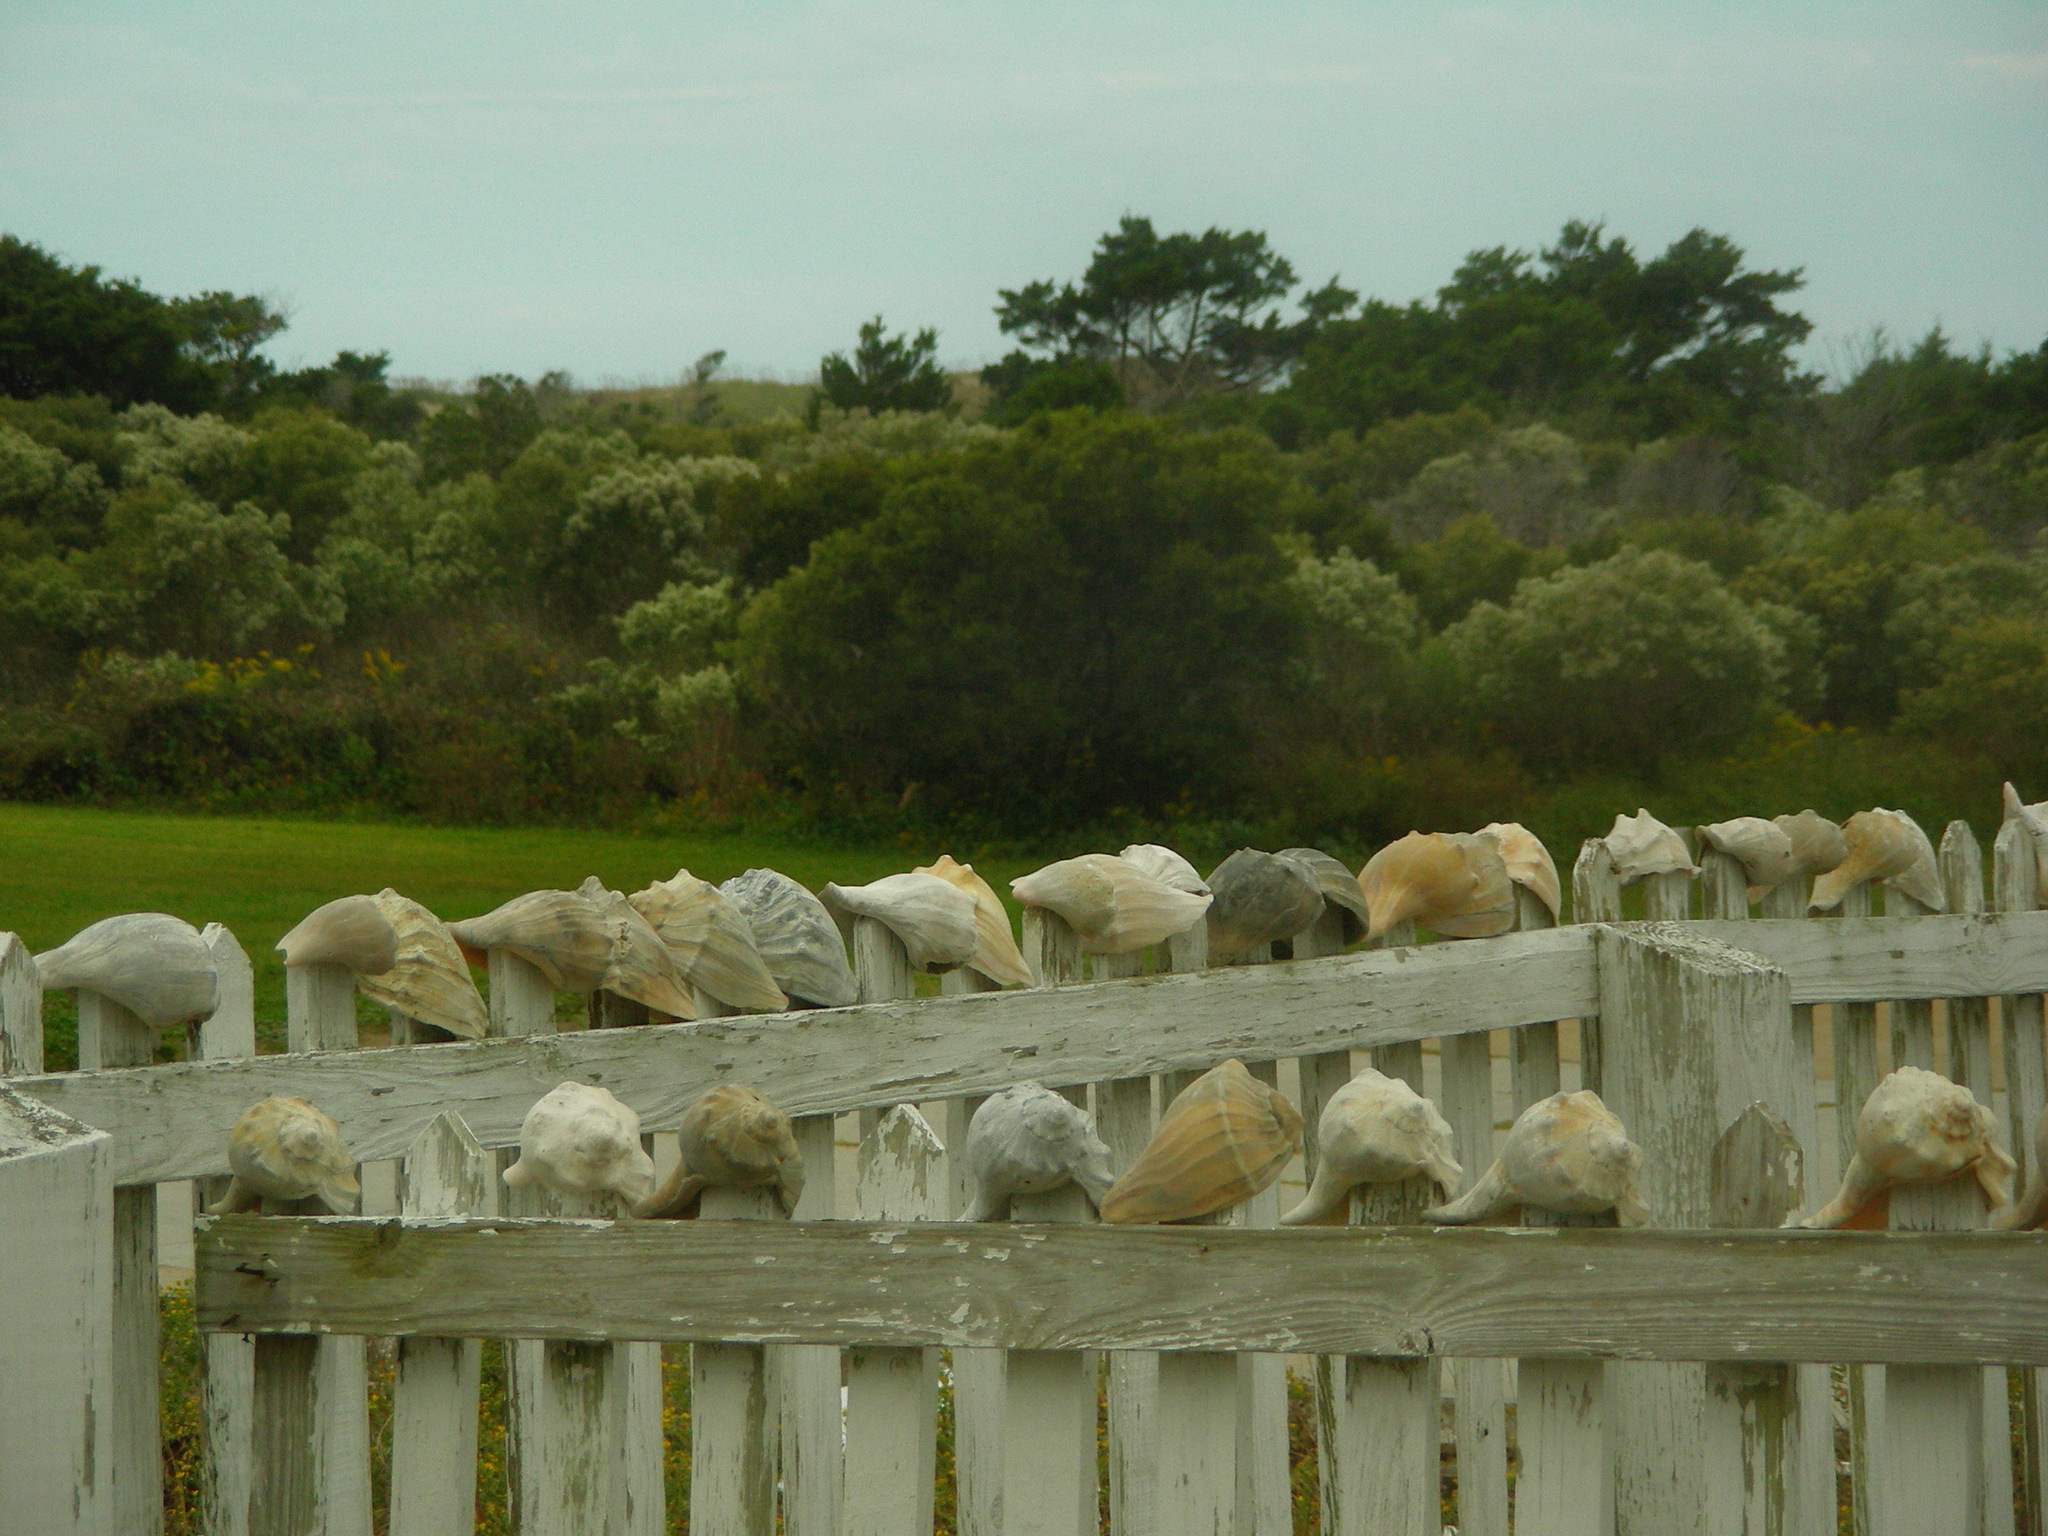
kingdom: Animalia
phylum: Mollusca
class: Gastropoda
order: Neogastropoda
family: Busyconidae
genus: Sinistrofulgur
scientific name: Sinistrofulgur sinistrum
